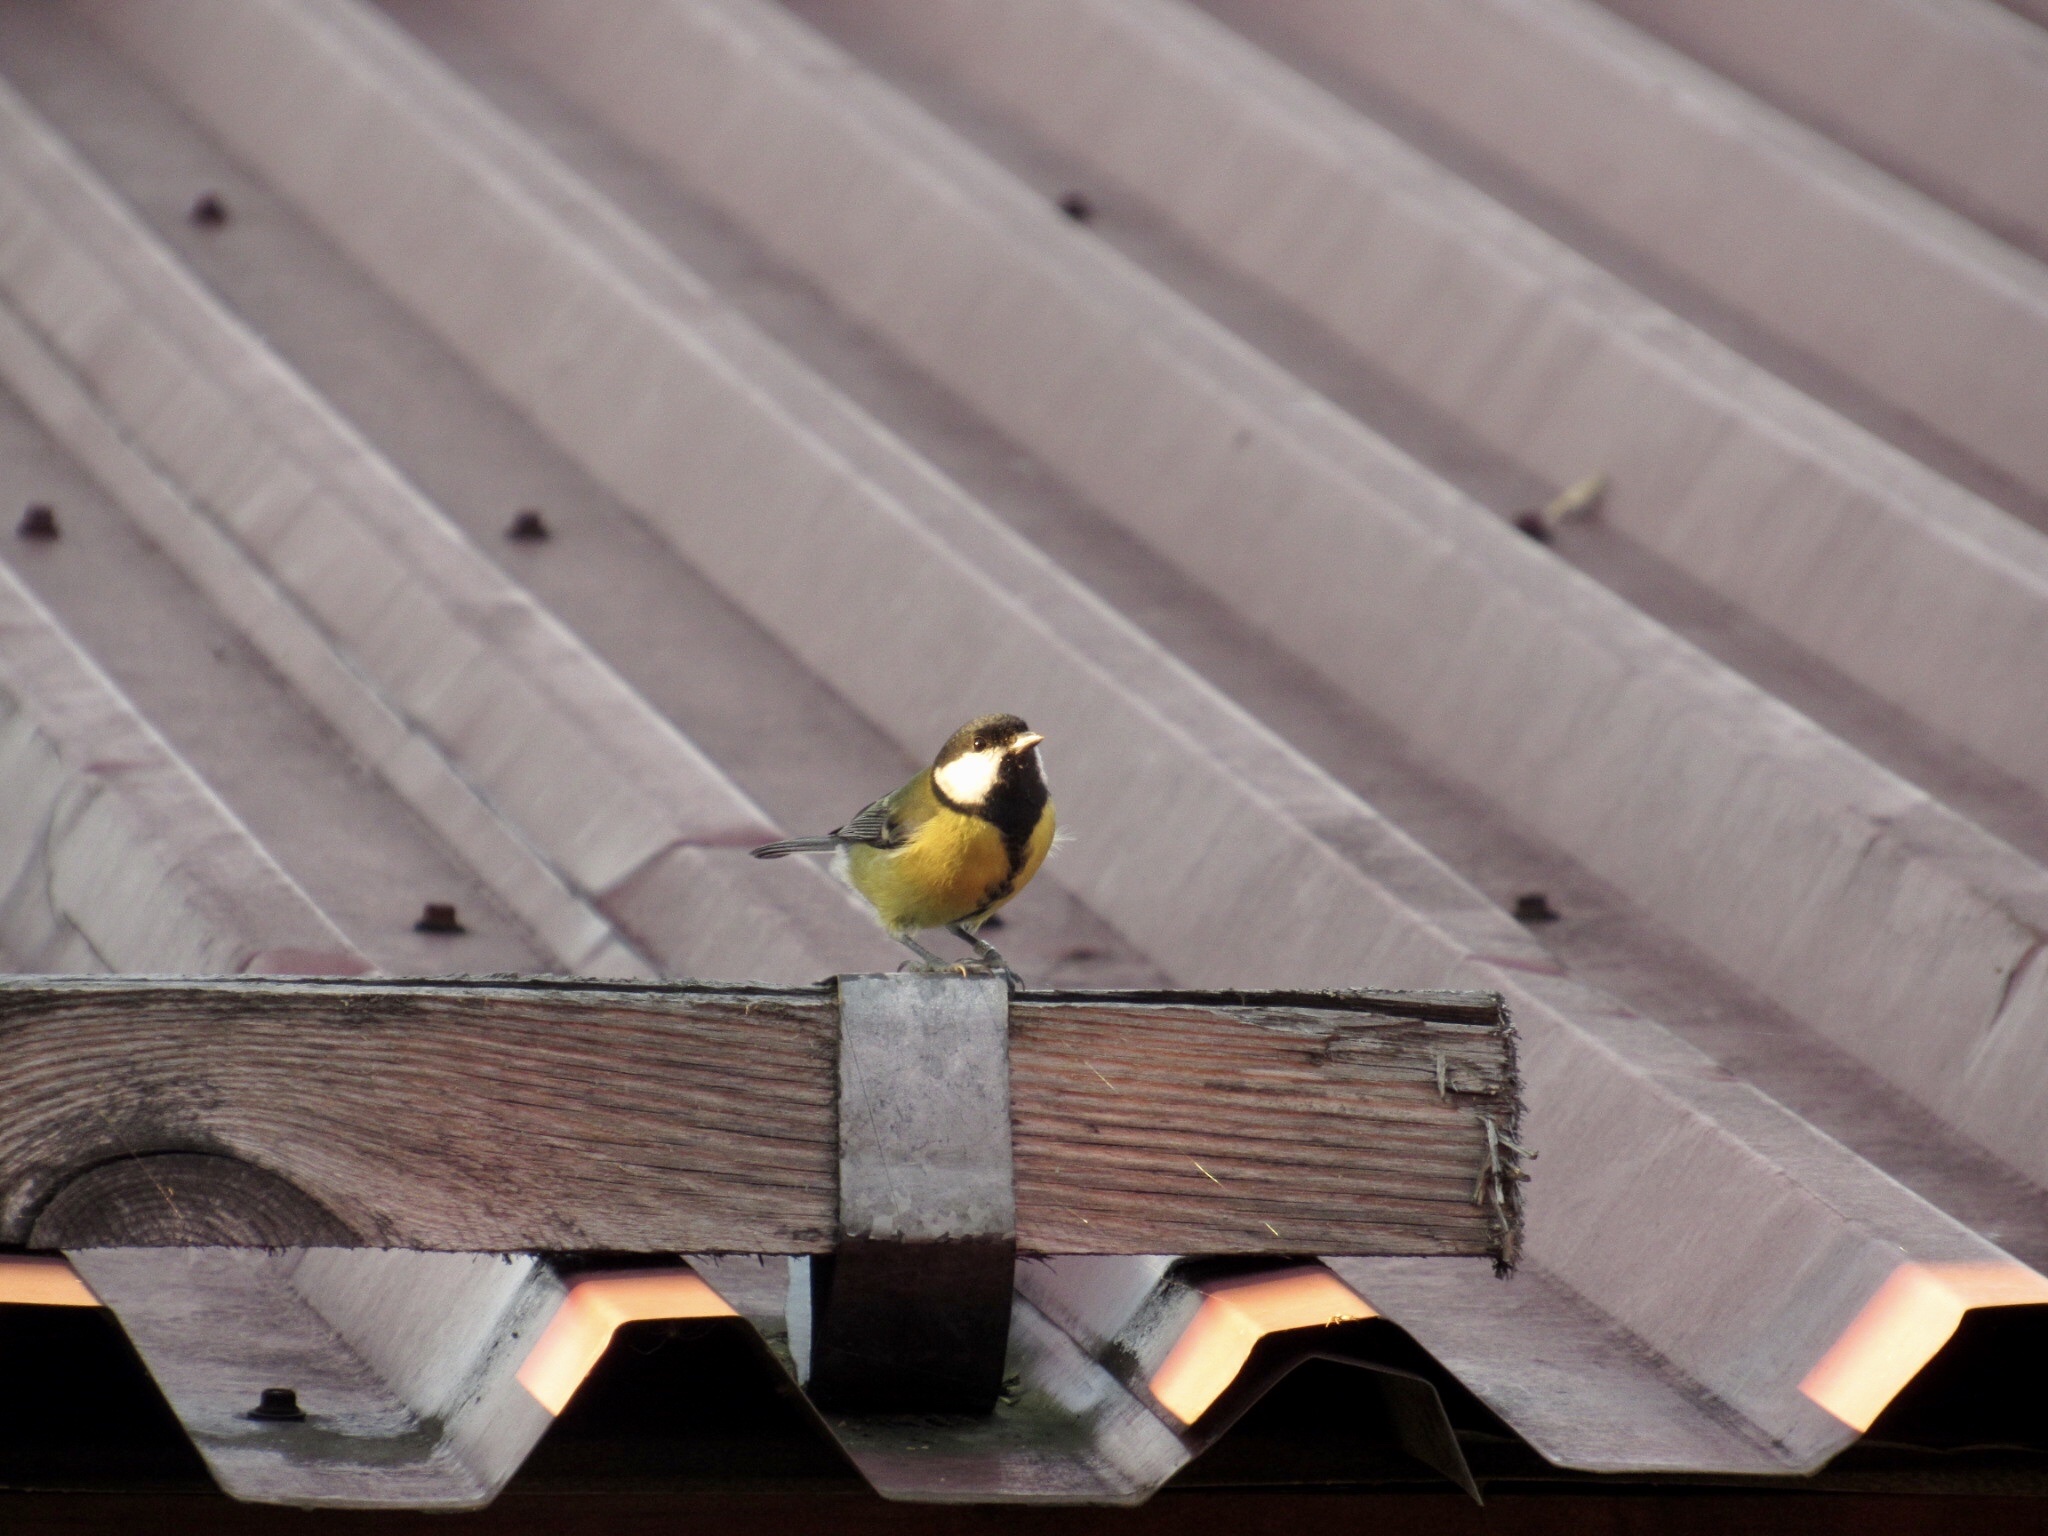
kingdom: Animalia
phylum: Chordata
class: Aves
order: Passeriformes
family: Paridae
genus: Parus
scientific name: Parus major
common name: Great tit
